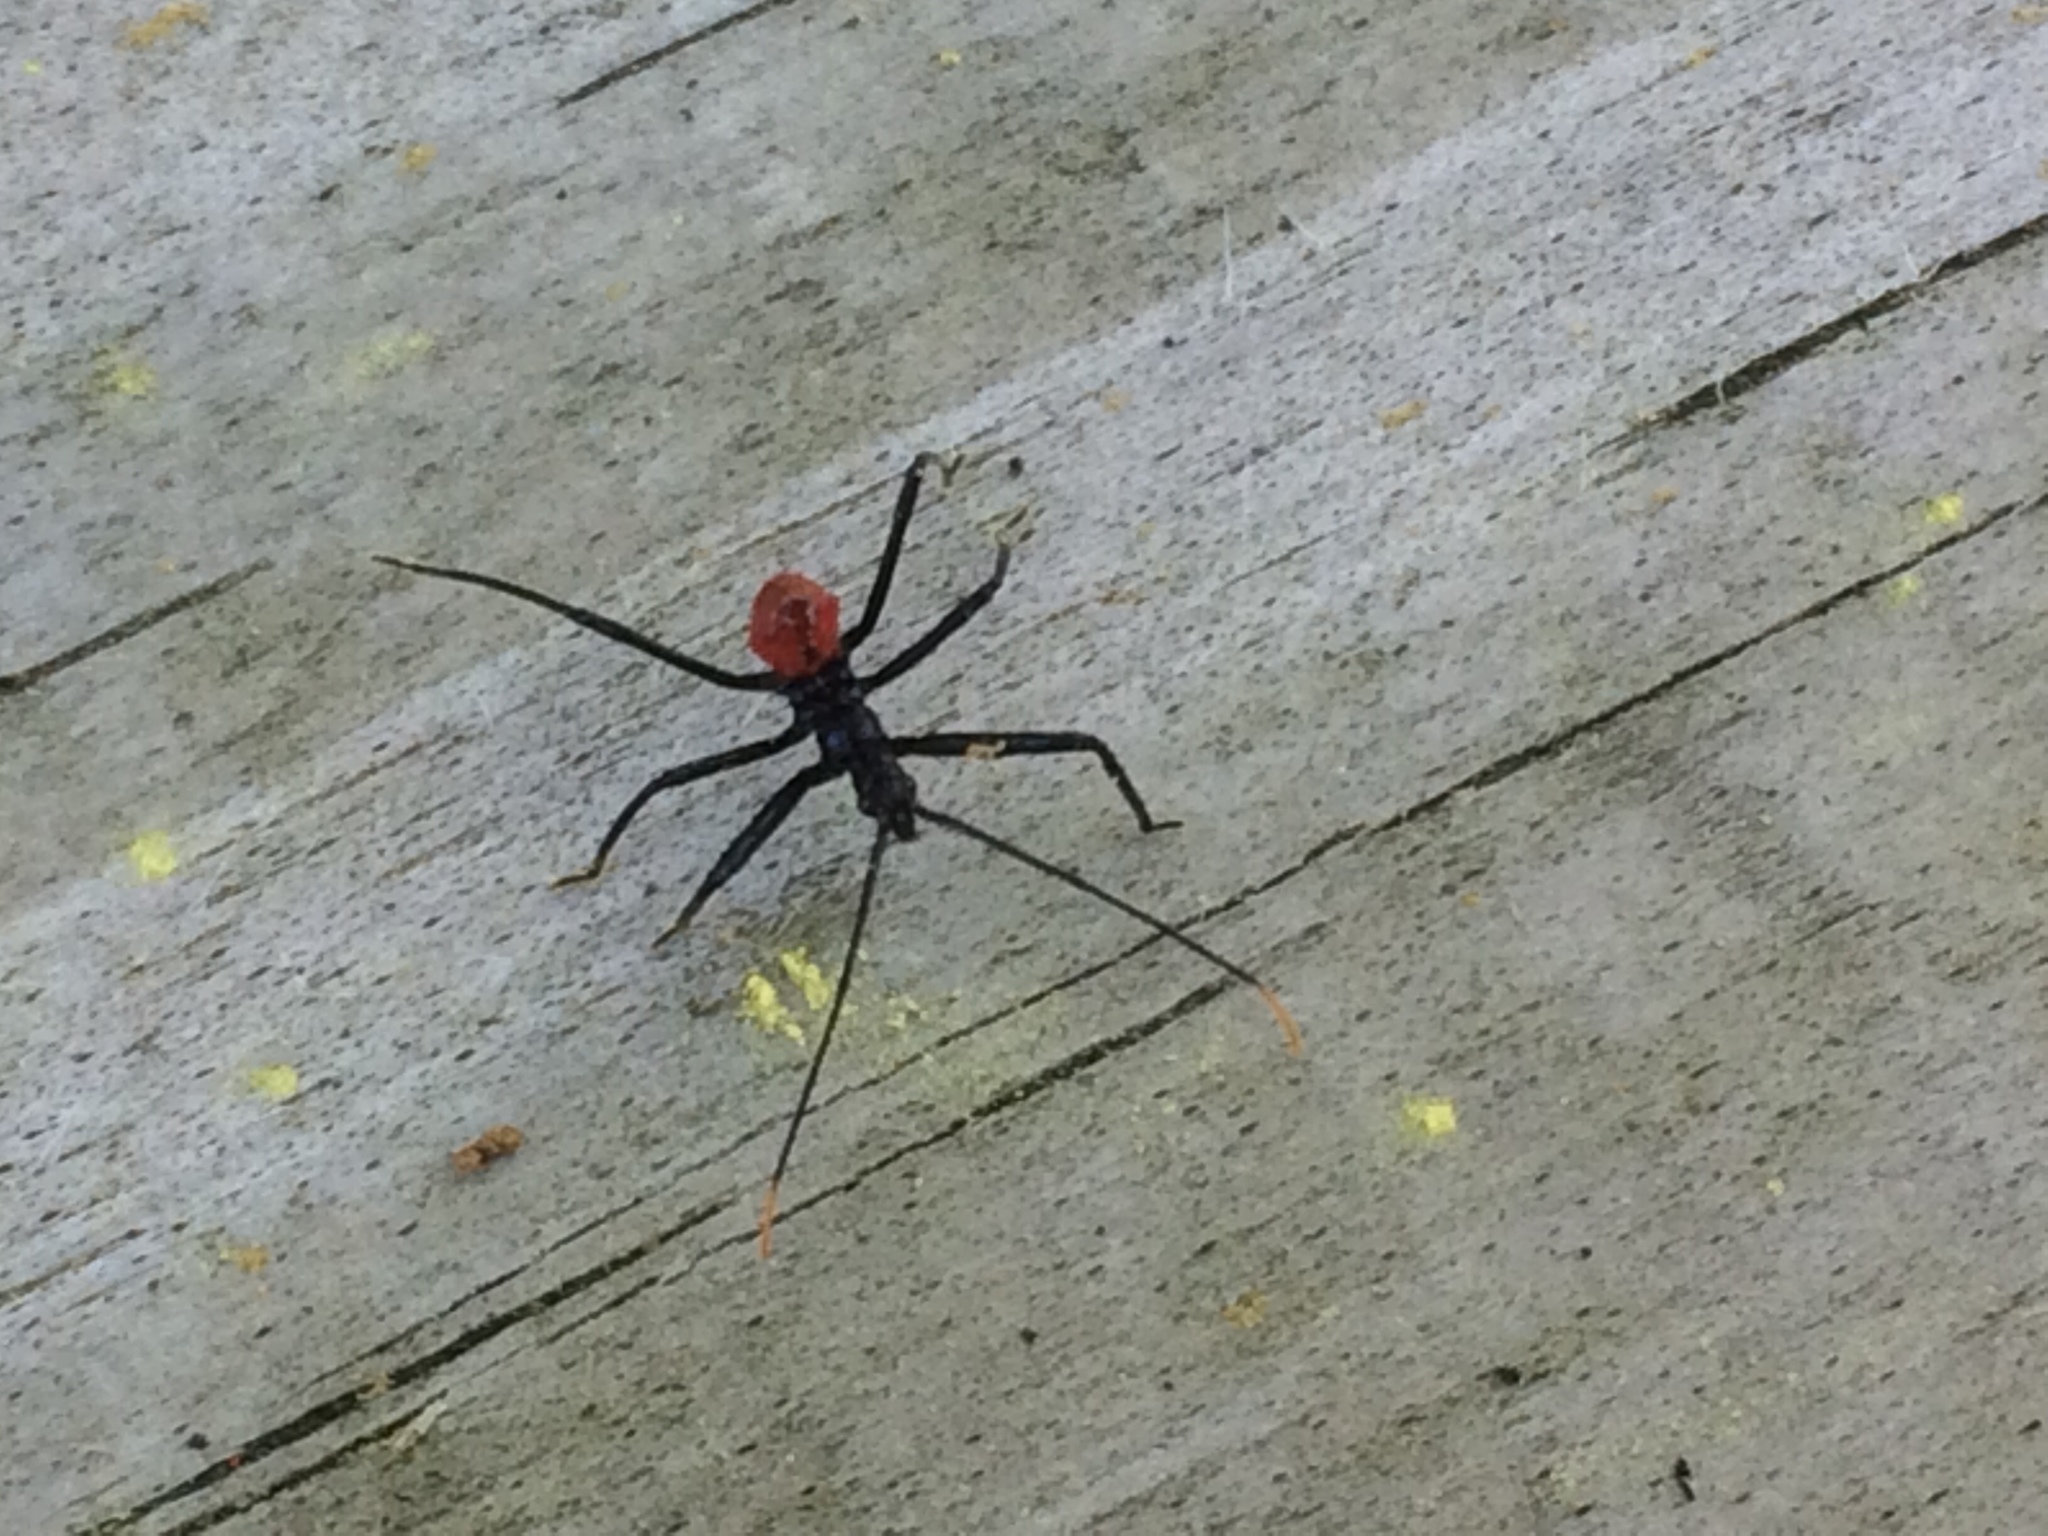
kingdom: Animalia
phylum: Arthropoda
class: Insecta
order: Hemiptera
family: Reduviidae
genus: Arilus
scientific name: Arilus cristatus
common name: North american wheel bug
